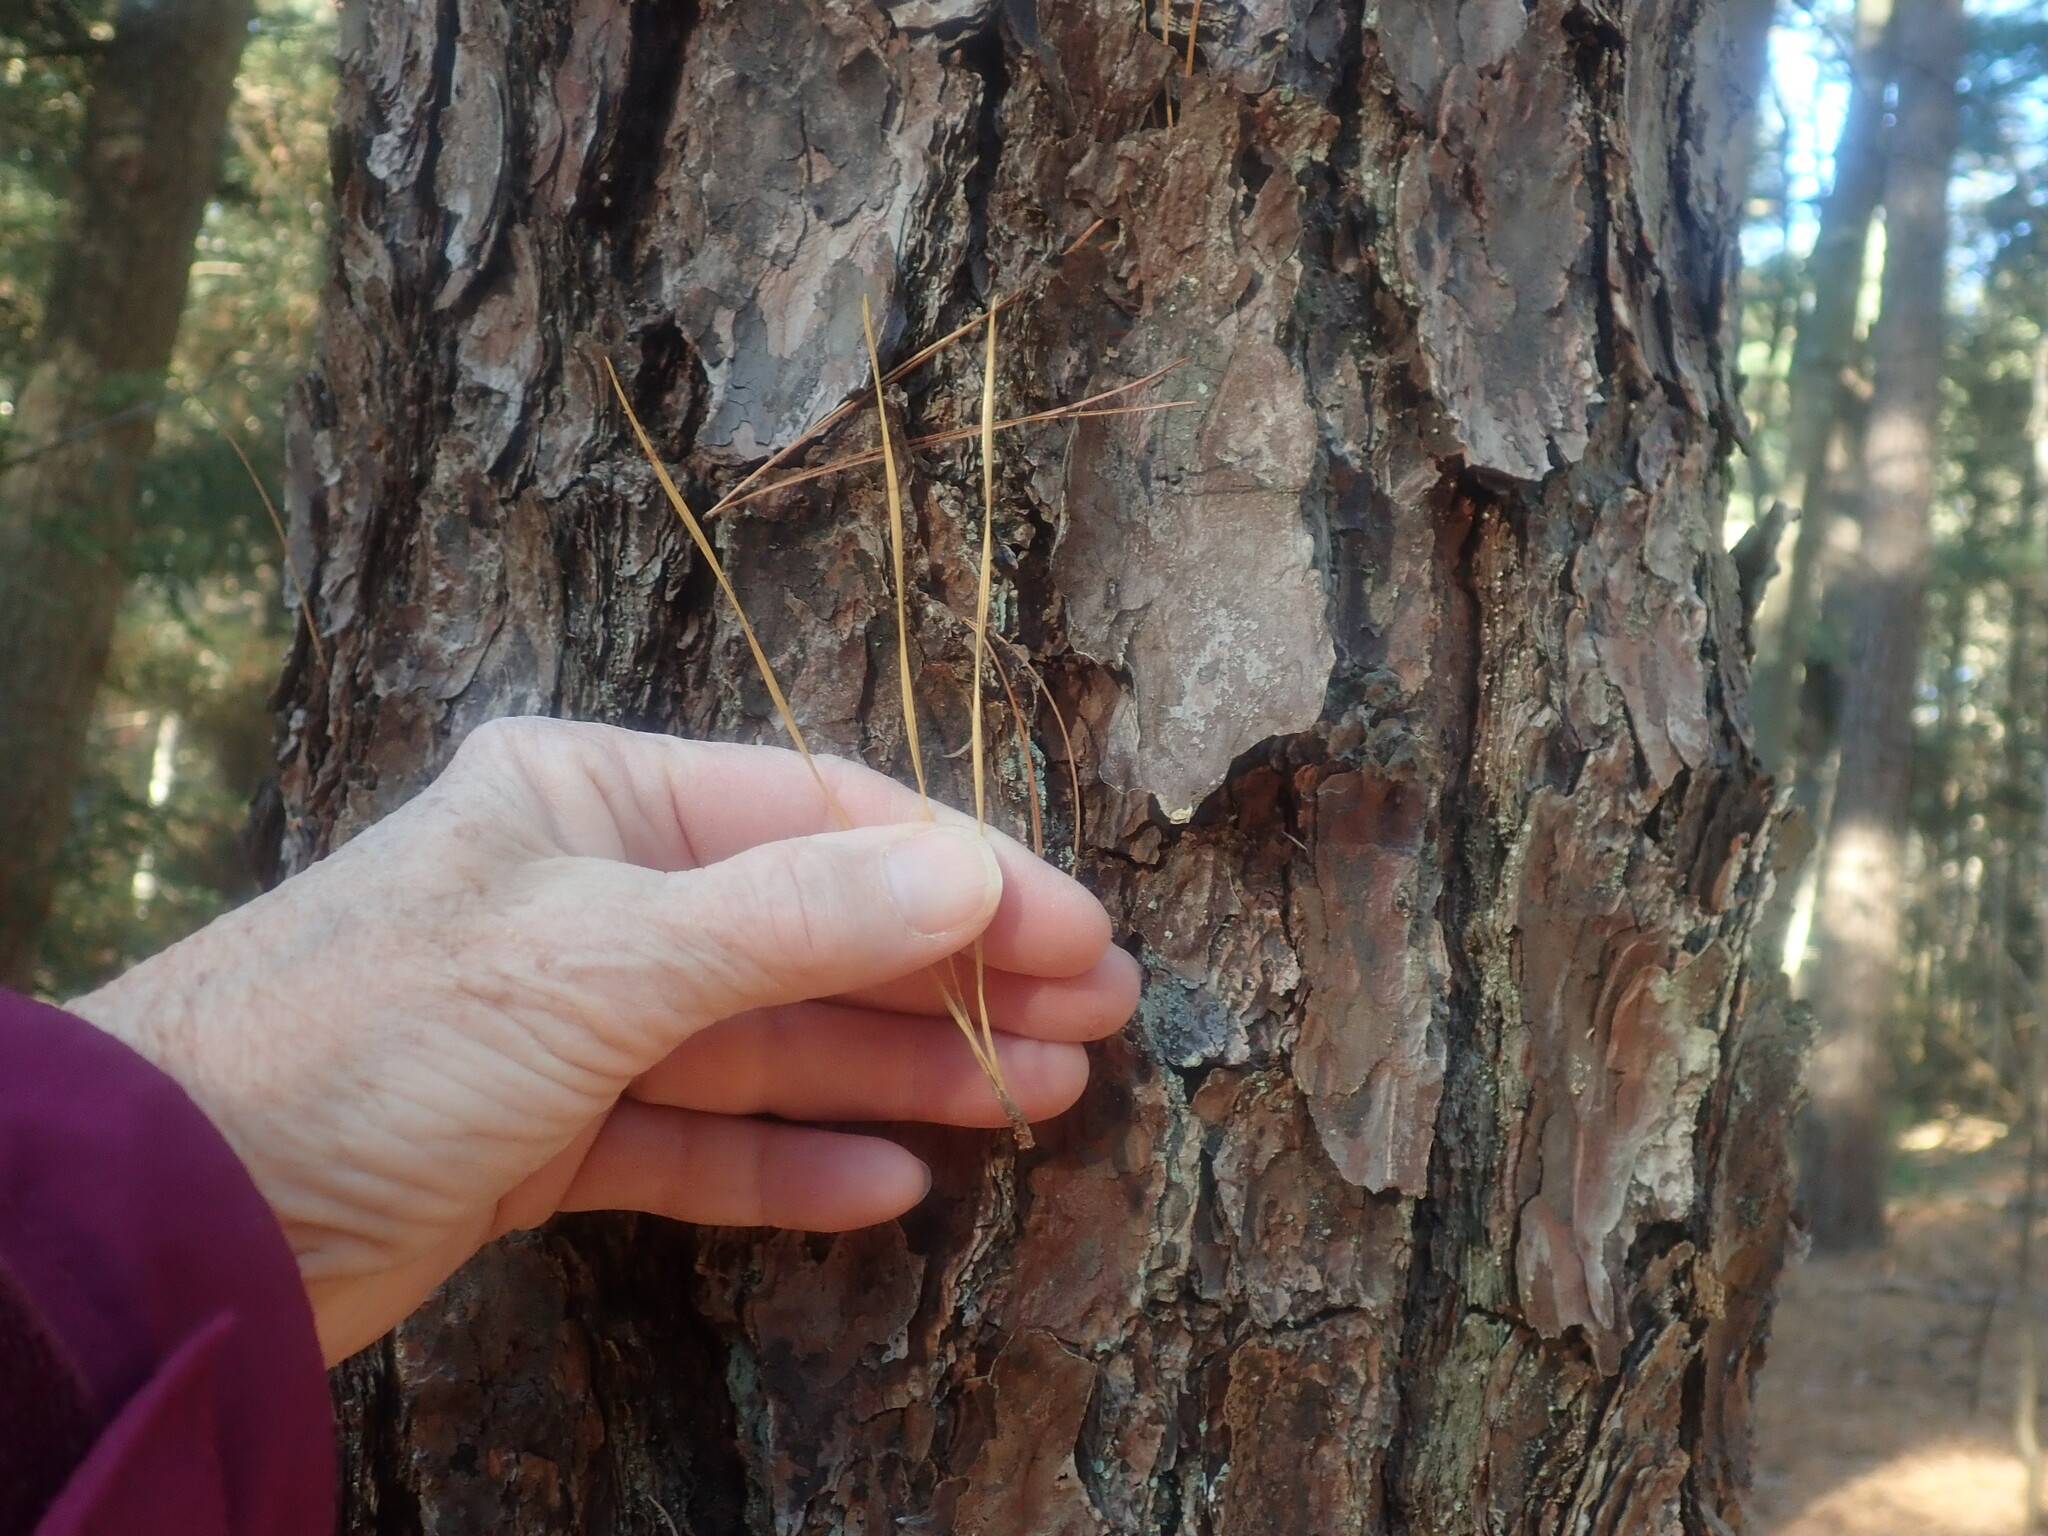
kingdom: Plantae
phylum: Tracheophyta
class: Pinopsida
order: Pinales
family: Pinaceae
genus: Pinus
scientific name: Pinus rigida
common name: Pitch pine
